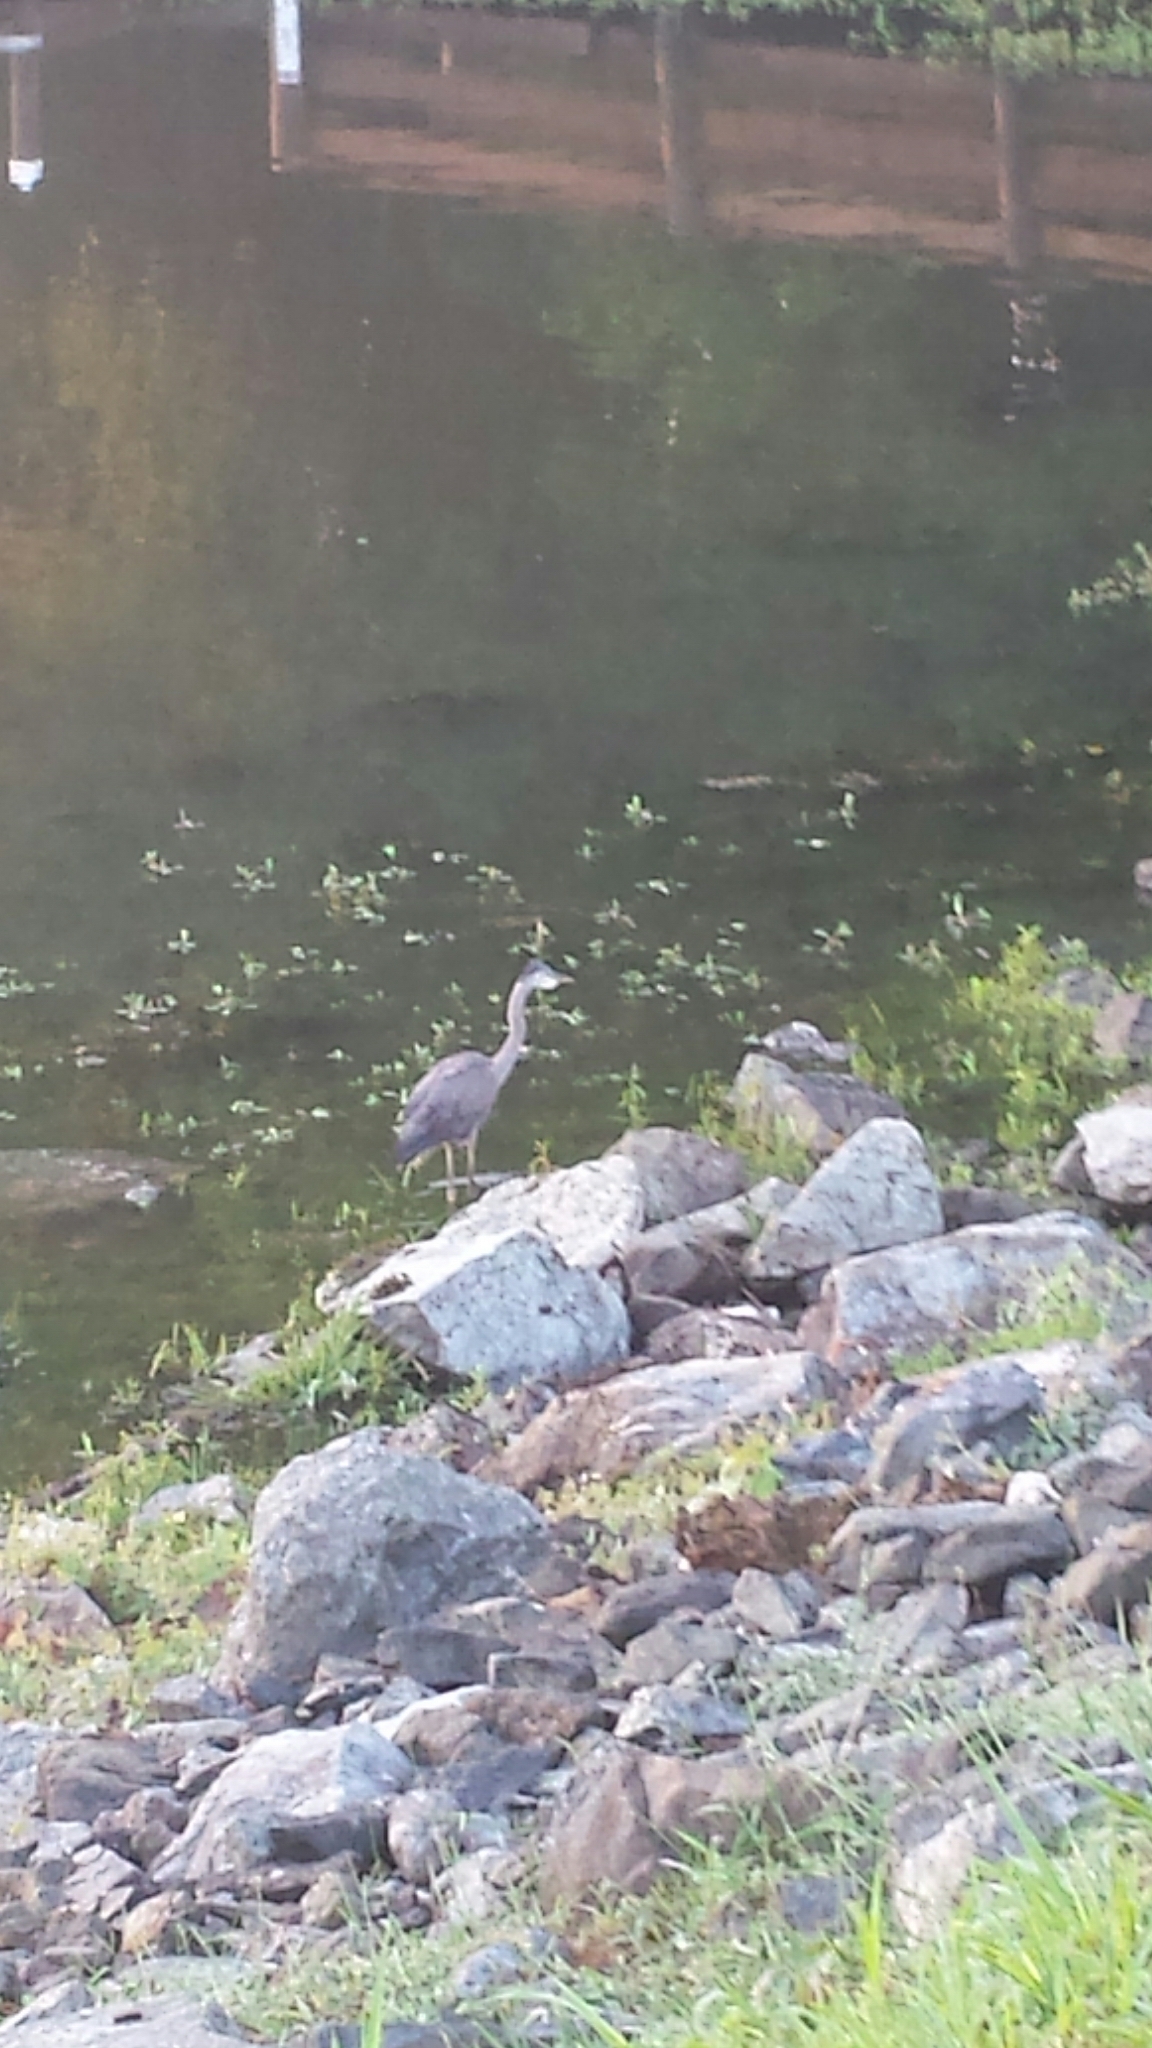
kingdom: Animalia
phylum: Chordata
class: Aves
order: Pelecaniformes
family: Ardeidae
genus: Ardea
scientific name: Ardea herodias
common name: Great blue heron
